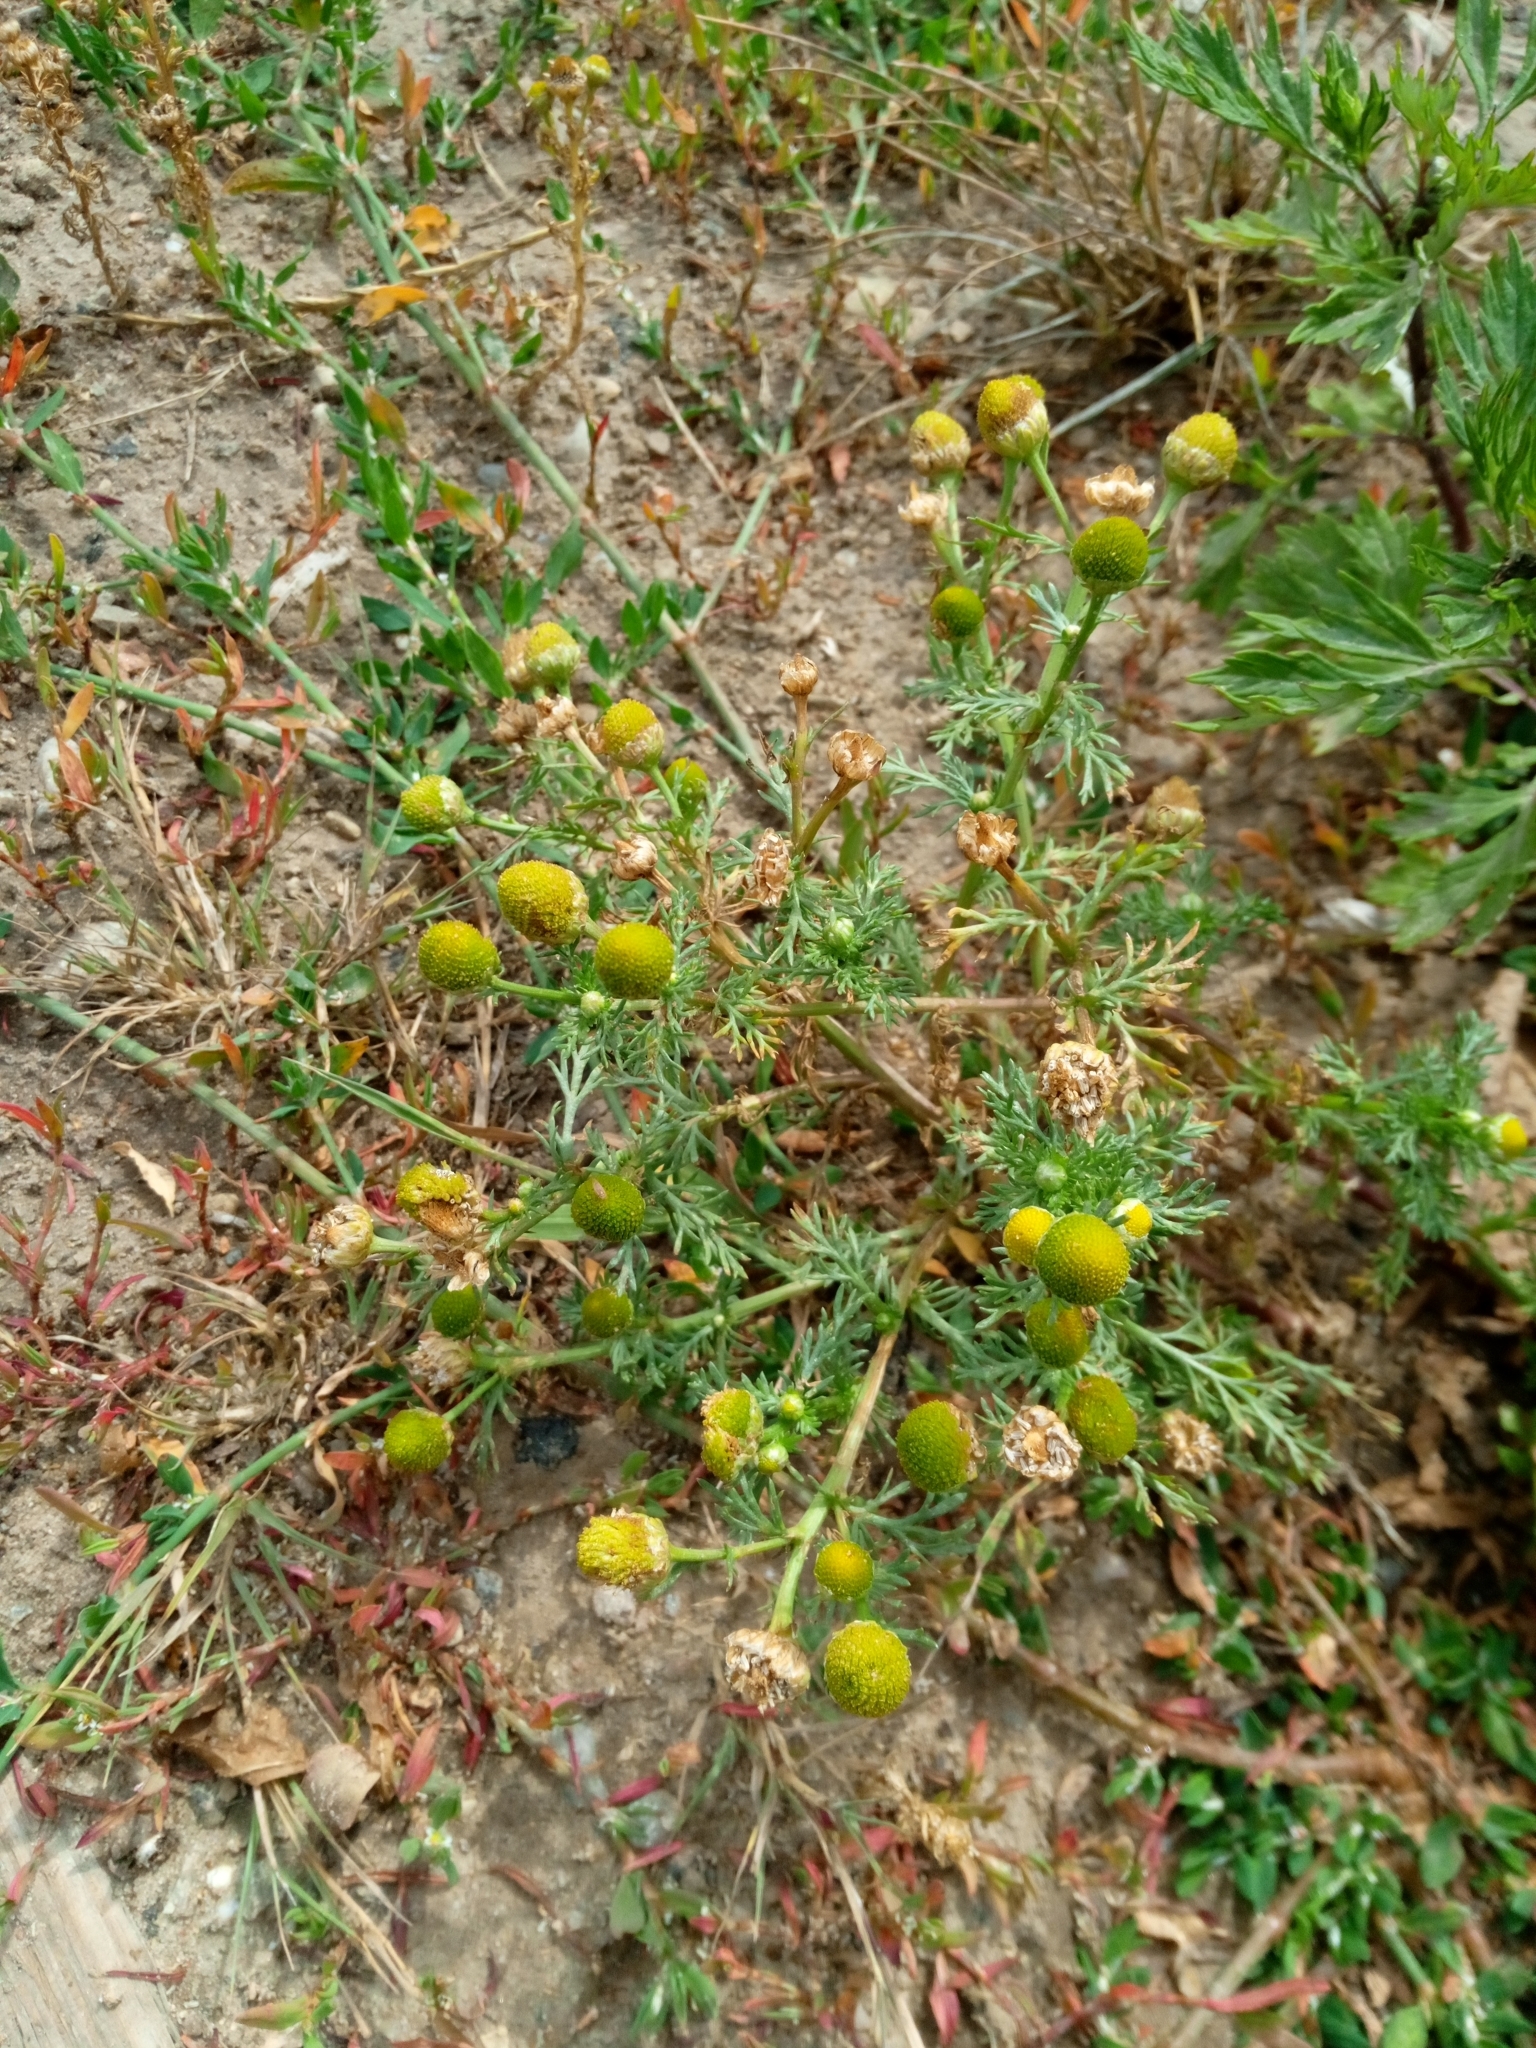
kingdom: Plantae
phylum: Tracheophyta
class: Magnoliopsida
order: Asterales
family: Asteraceae
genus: Matricaria
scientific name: Matricaria discoidea
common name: Disc mayweed
